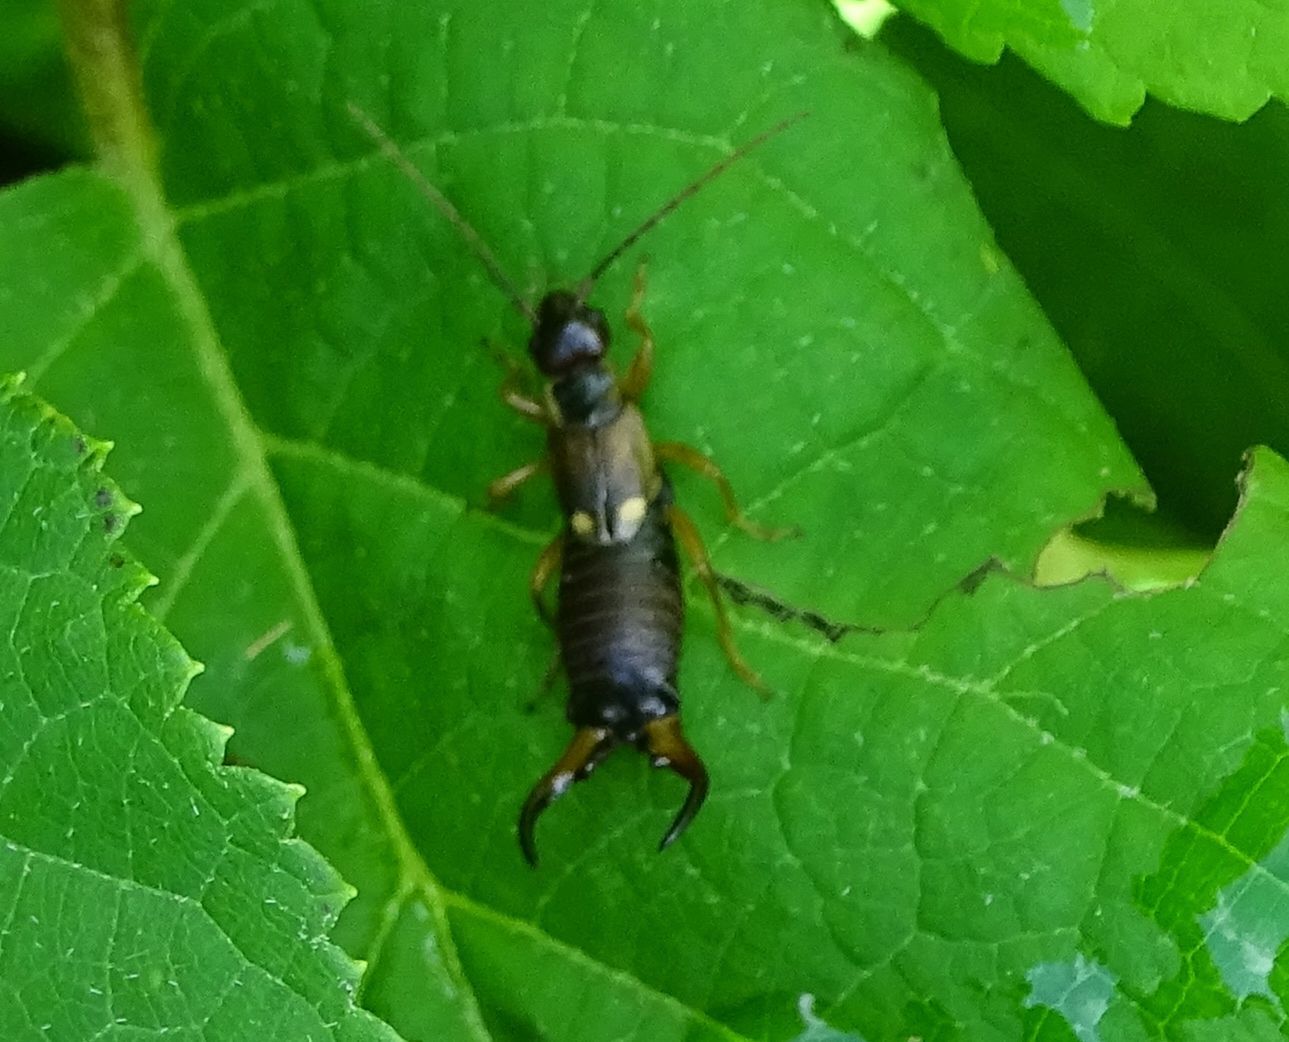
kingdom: Animalia
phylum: Arthropoda
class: Insecta
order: Dermaptera
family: Forficulidae
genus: Forficula
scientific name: Forficula
